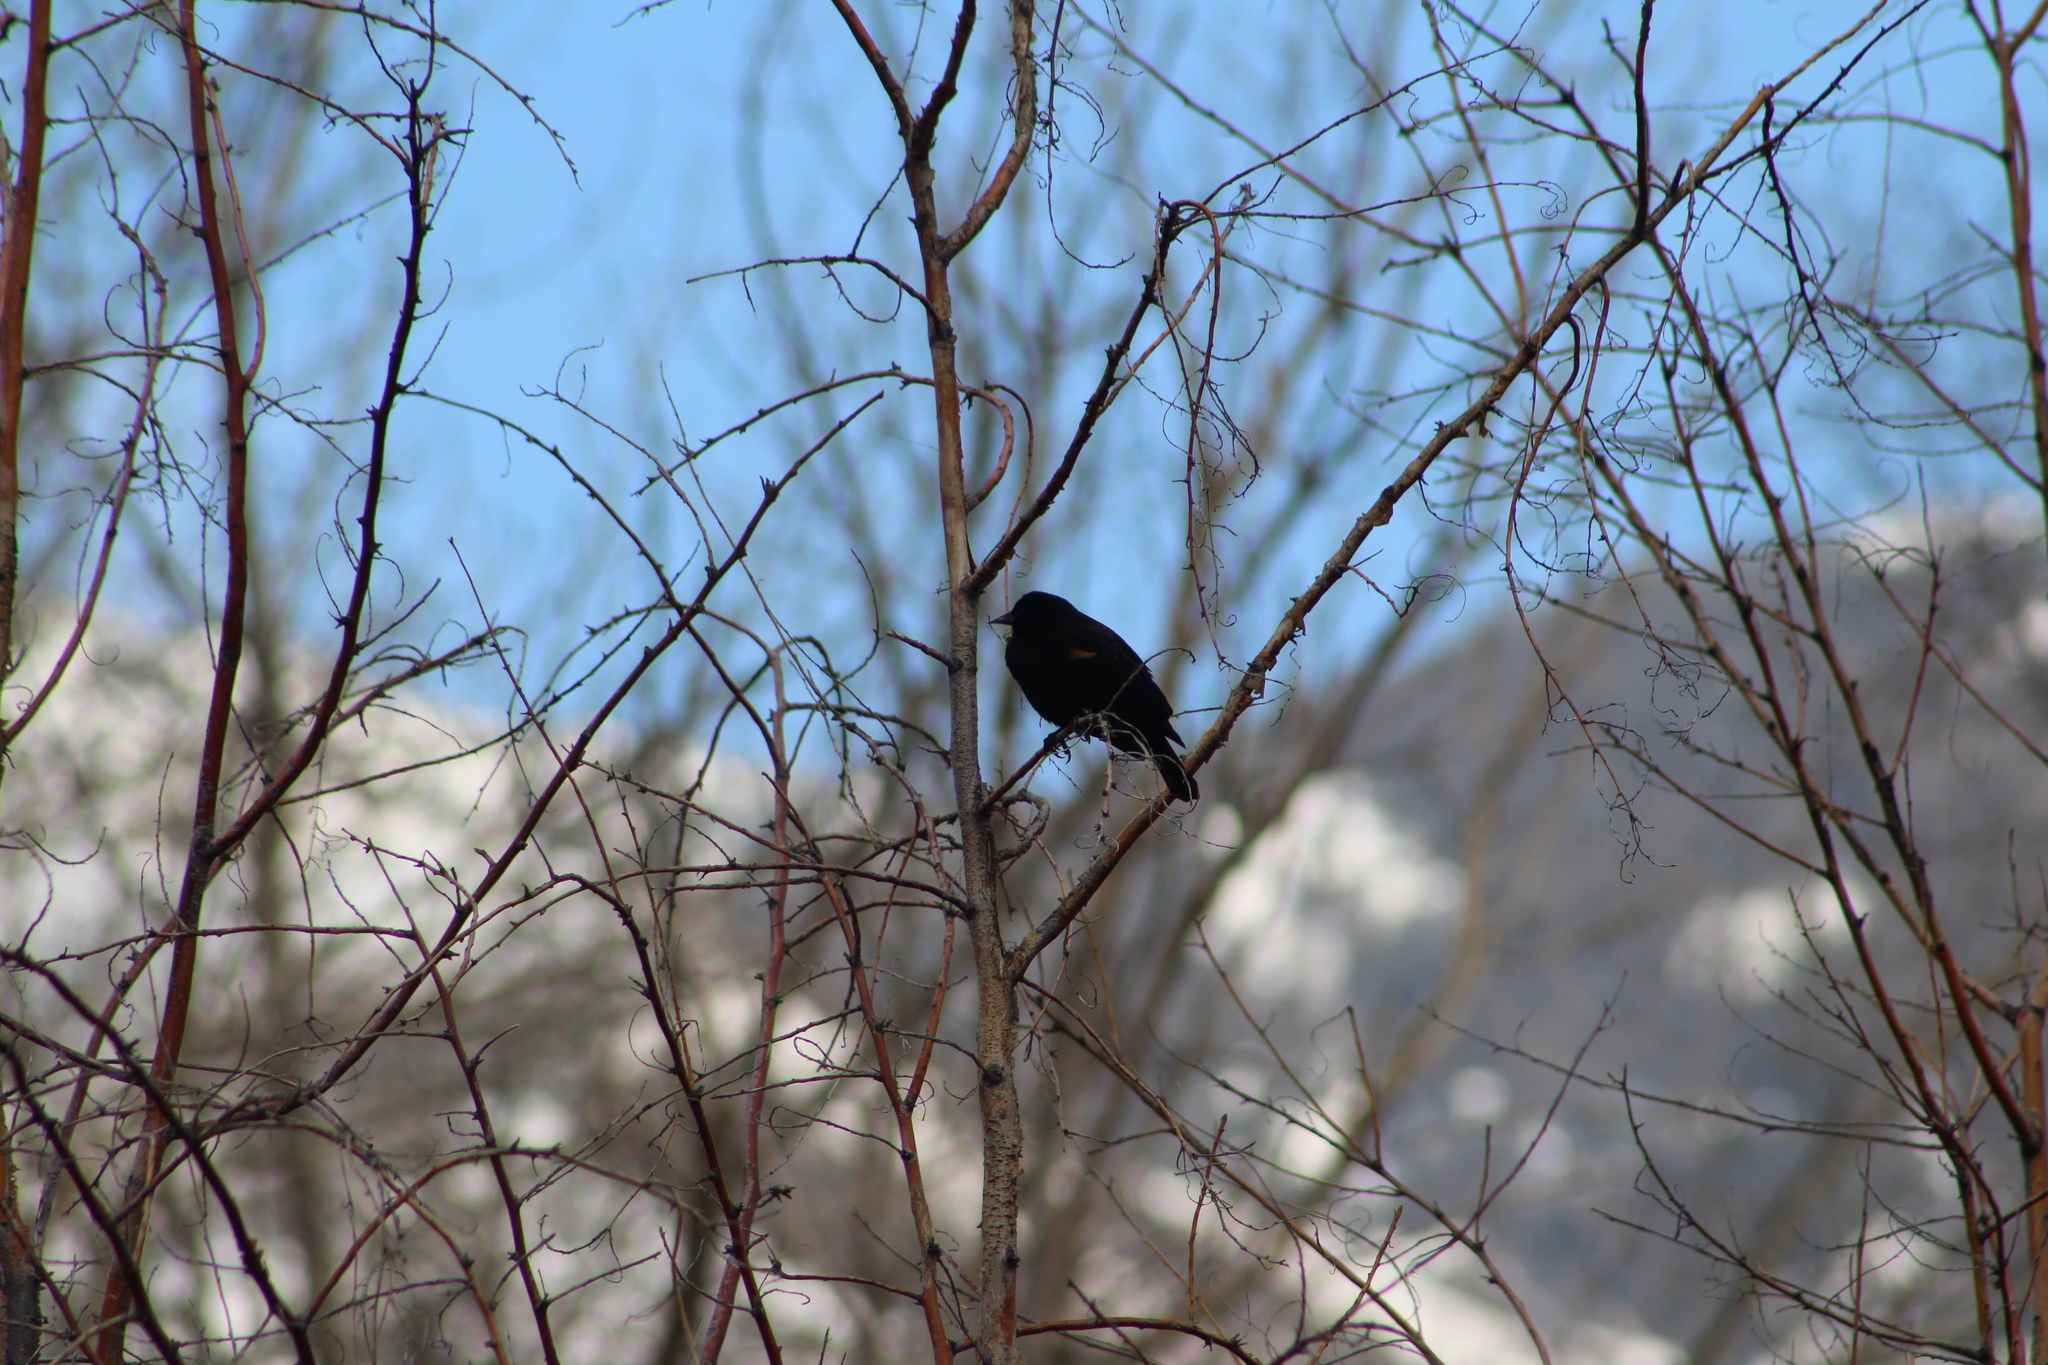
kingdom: Animalia
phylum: Chordata
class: Aves
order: Passeriformes
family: Icteridae
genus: Agelaius
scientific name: Agelaius phoeniceus
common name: Red-winged blackbird
